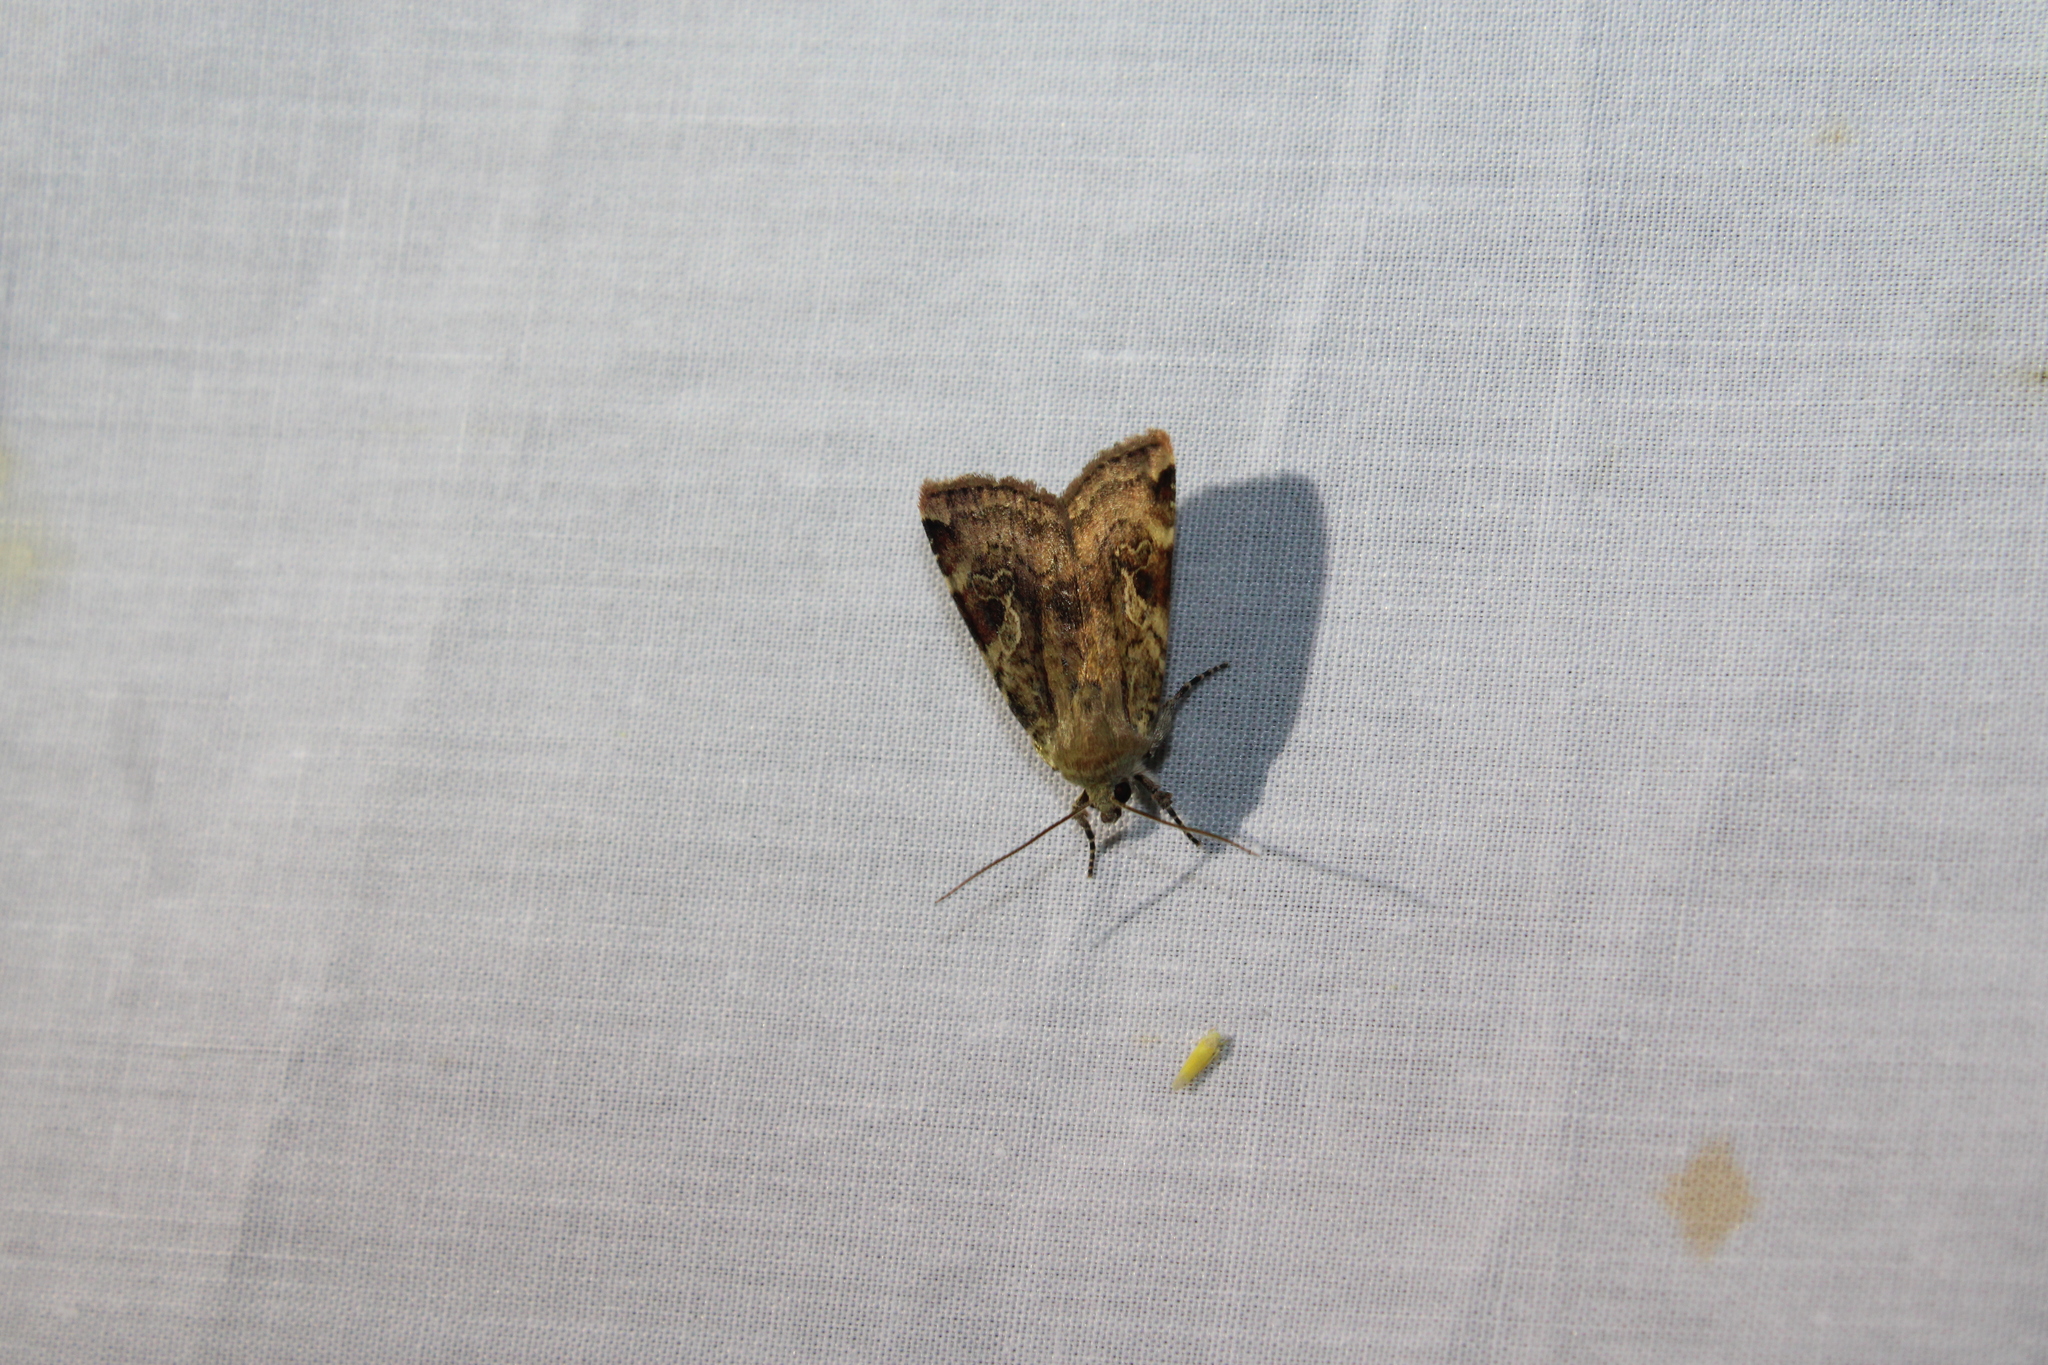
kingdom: Animalia
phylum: Arthropoda
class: Insecta
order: Lepidoptera
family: Noctuidae
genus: Cryptocala
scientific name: Cryptocala acadiensis
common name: Catocaline dart
